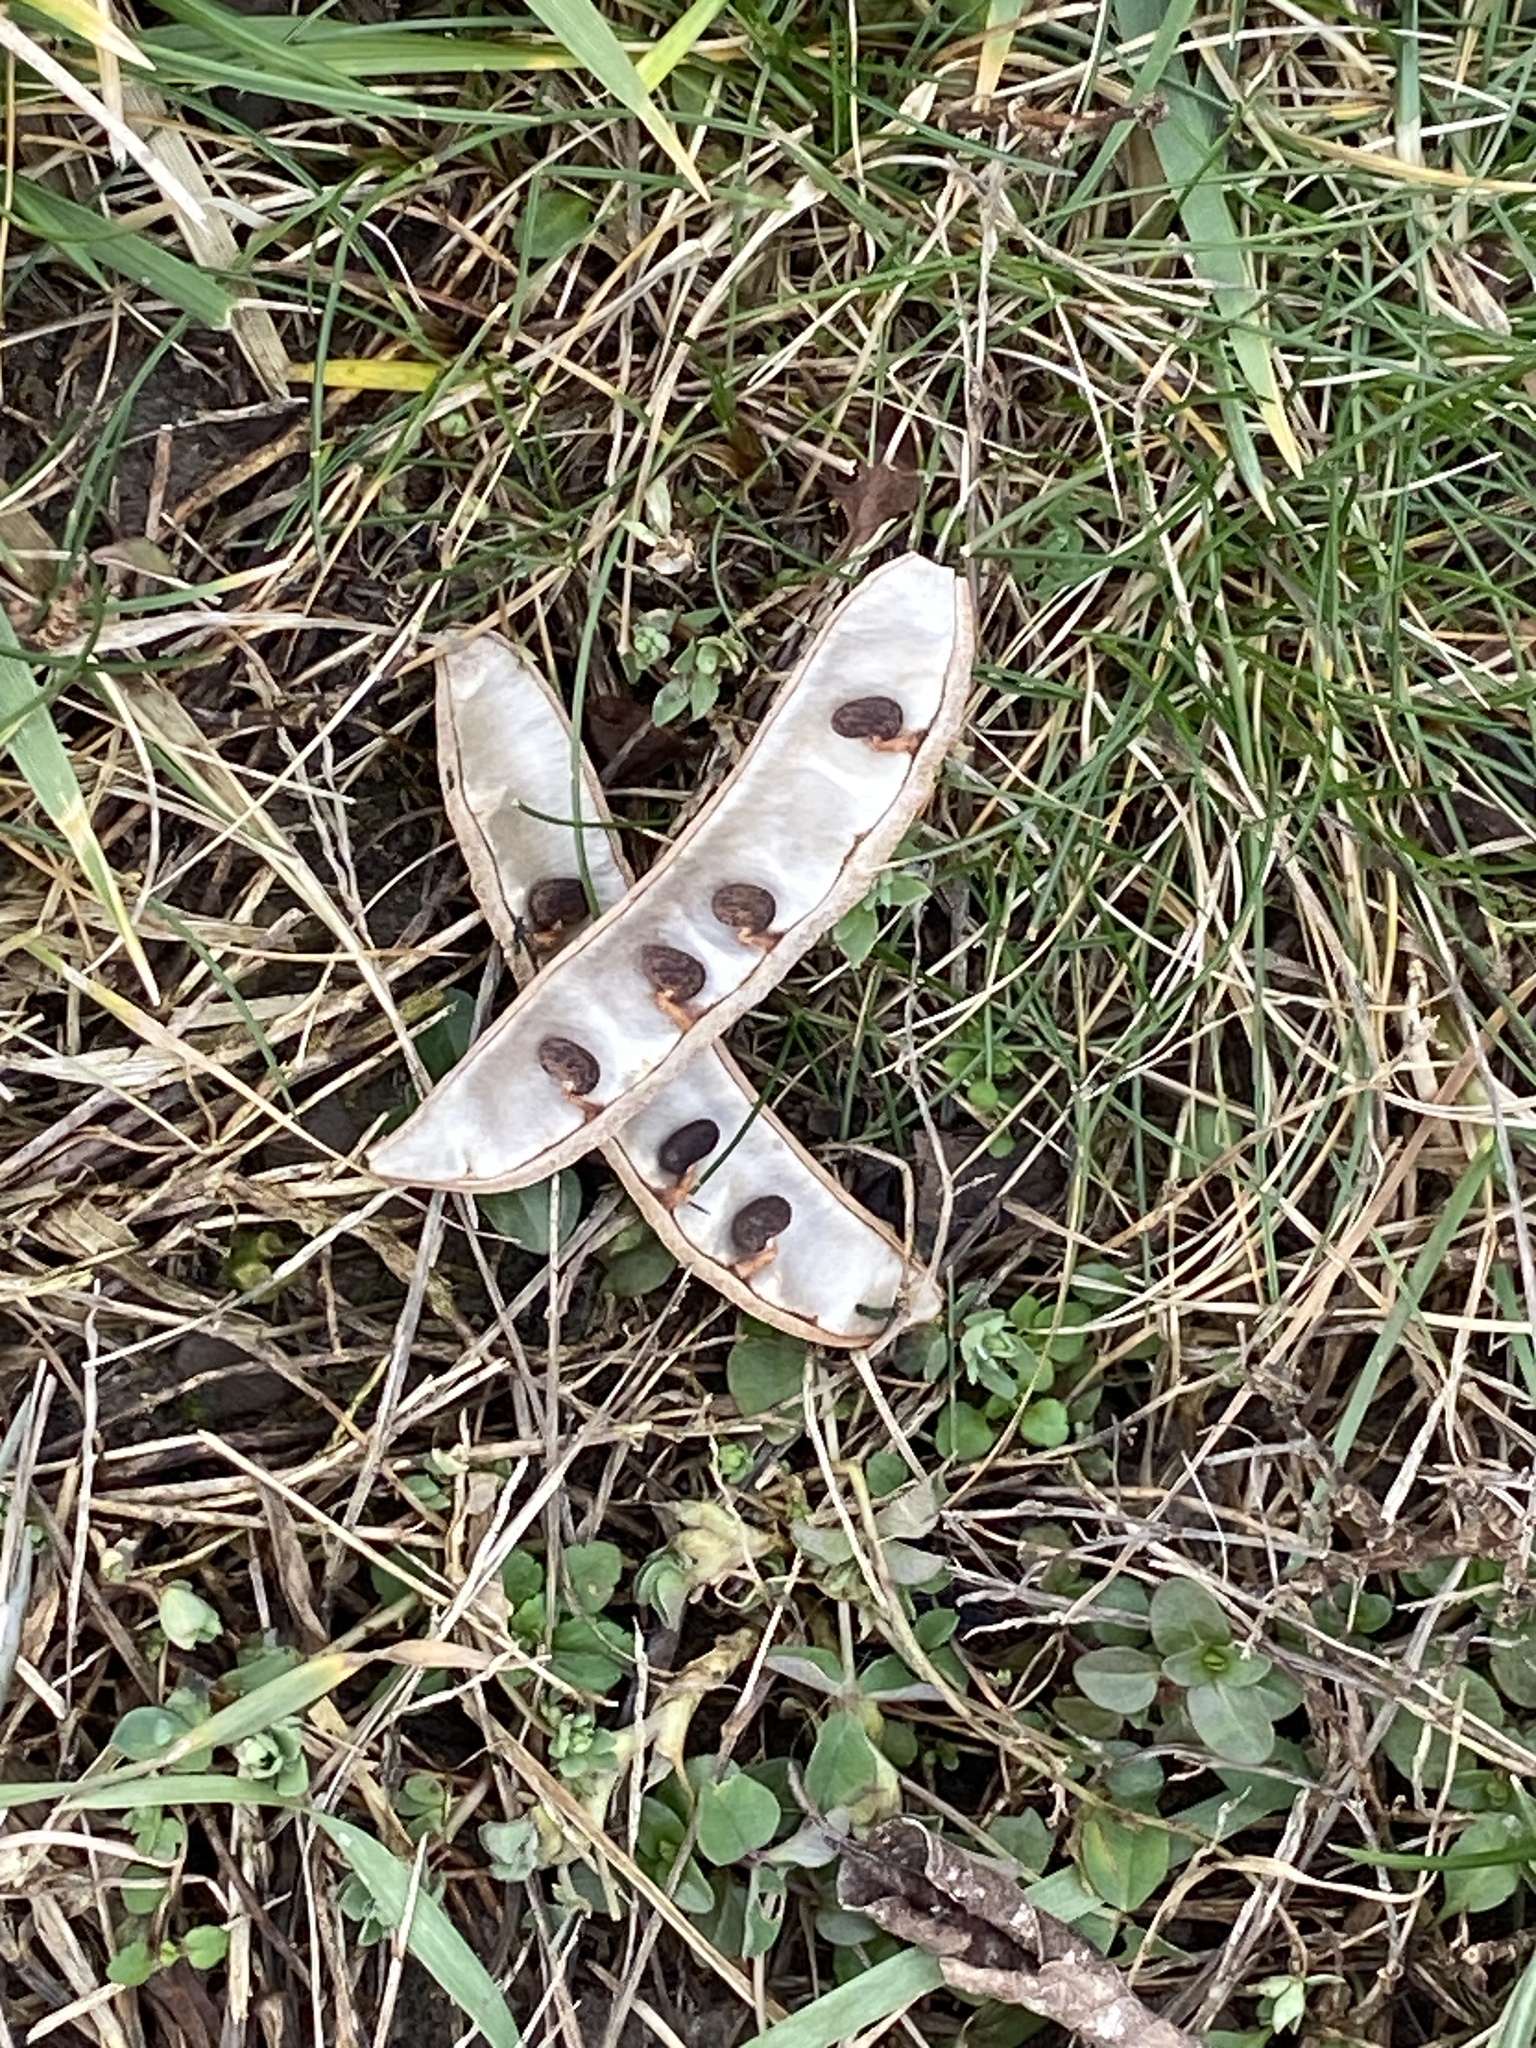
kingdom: Plantae
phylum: Tracheophyta
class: Magnoliopsida
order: Fabales
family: Fabaceae
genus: Robinia
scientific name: Robinia pseudoacacia
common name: Black locust
